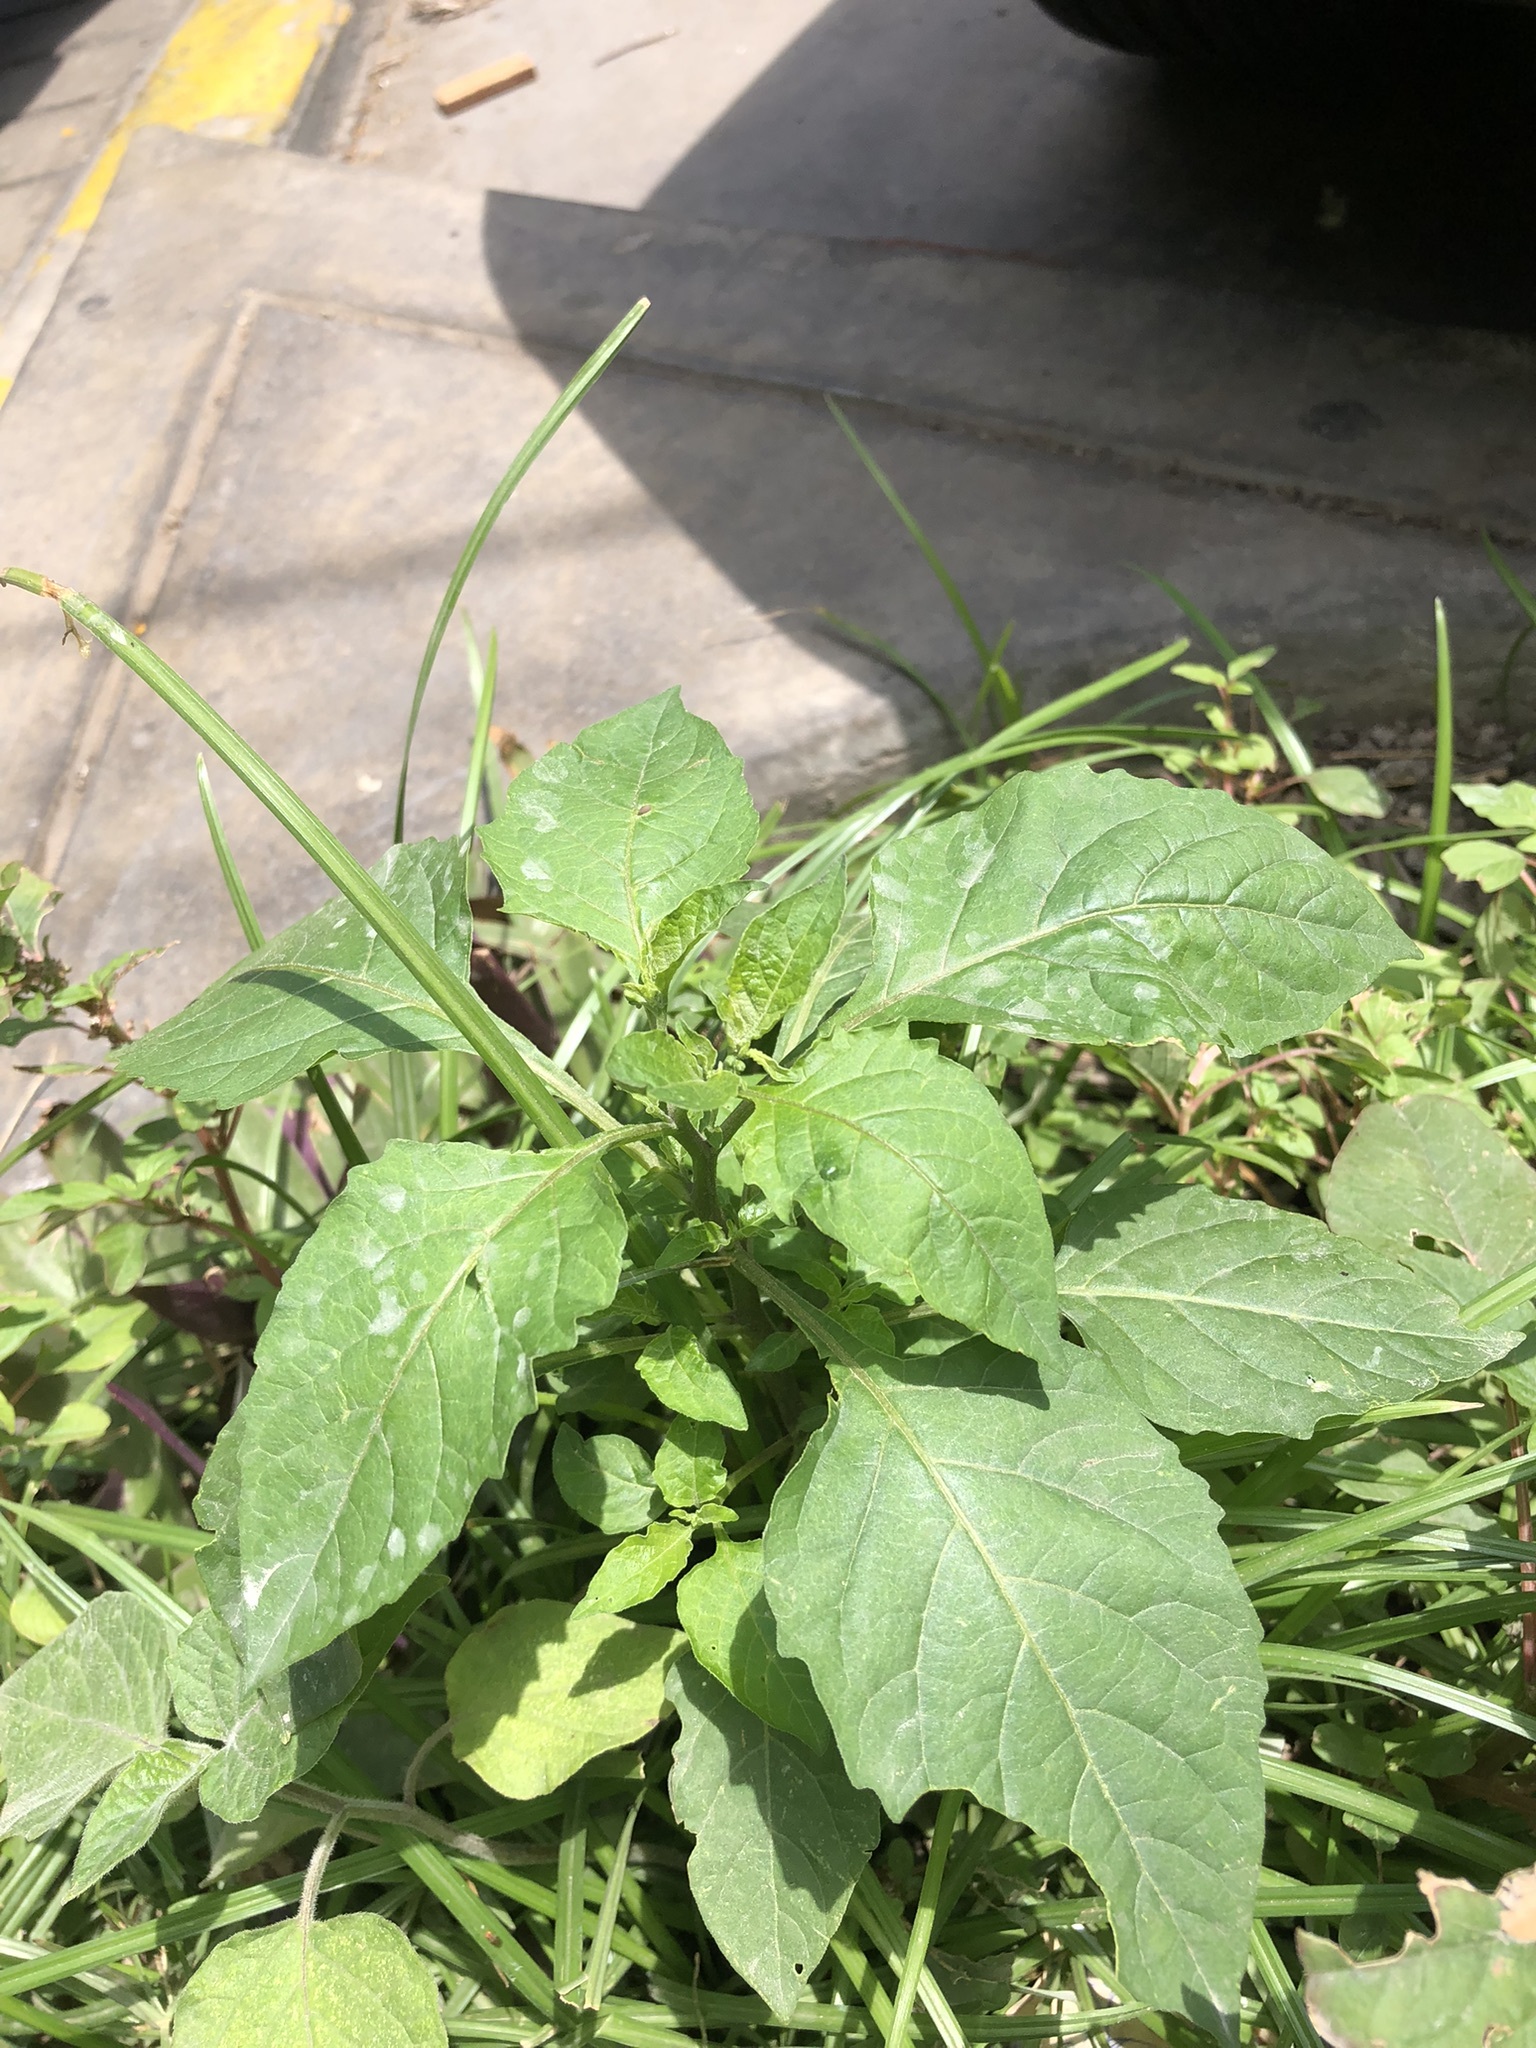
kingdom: Plantae
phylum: Tracheophyta
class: Magnoliopsida
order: Solanales
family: Solanaceae
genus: Nicandra
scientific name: Nicandra physalodes
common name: Apple-of-peru
